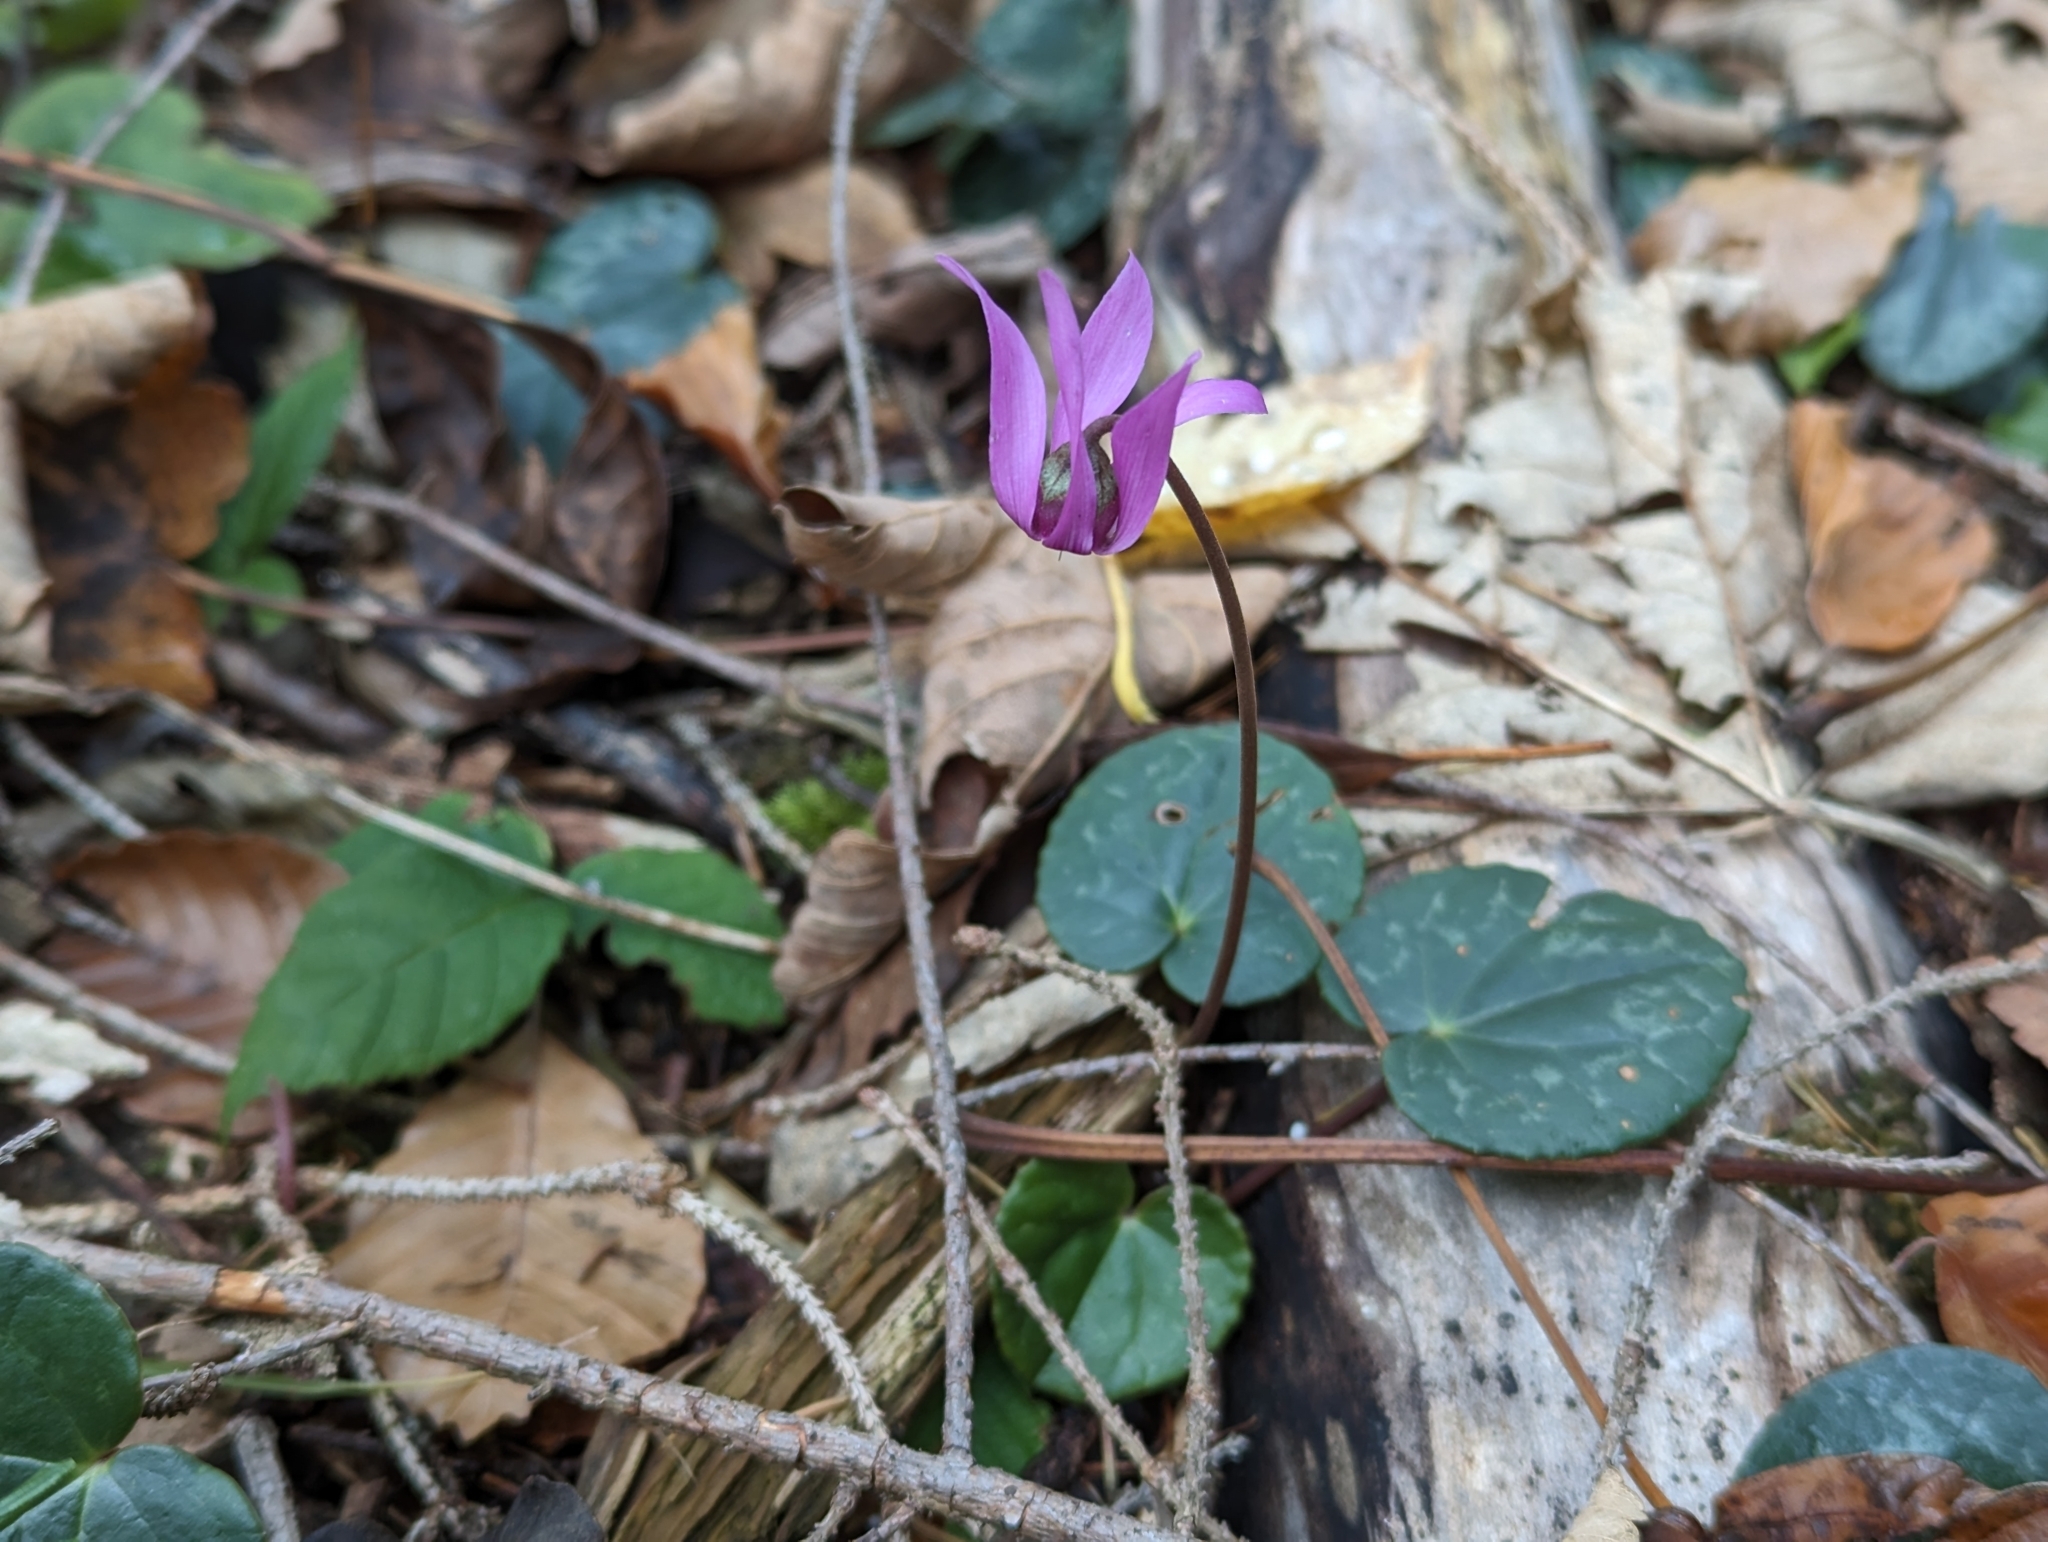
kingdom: Plantae
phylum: Tracheophyta
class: Magnoliopsida
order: Ericales
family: Primulaceae
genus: Cyclamen
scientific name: Cyclamen purpurascens
